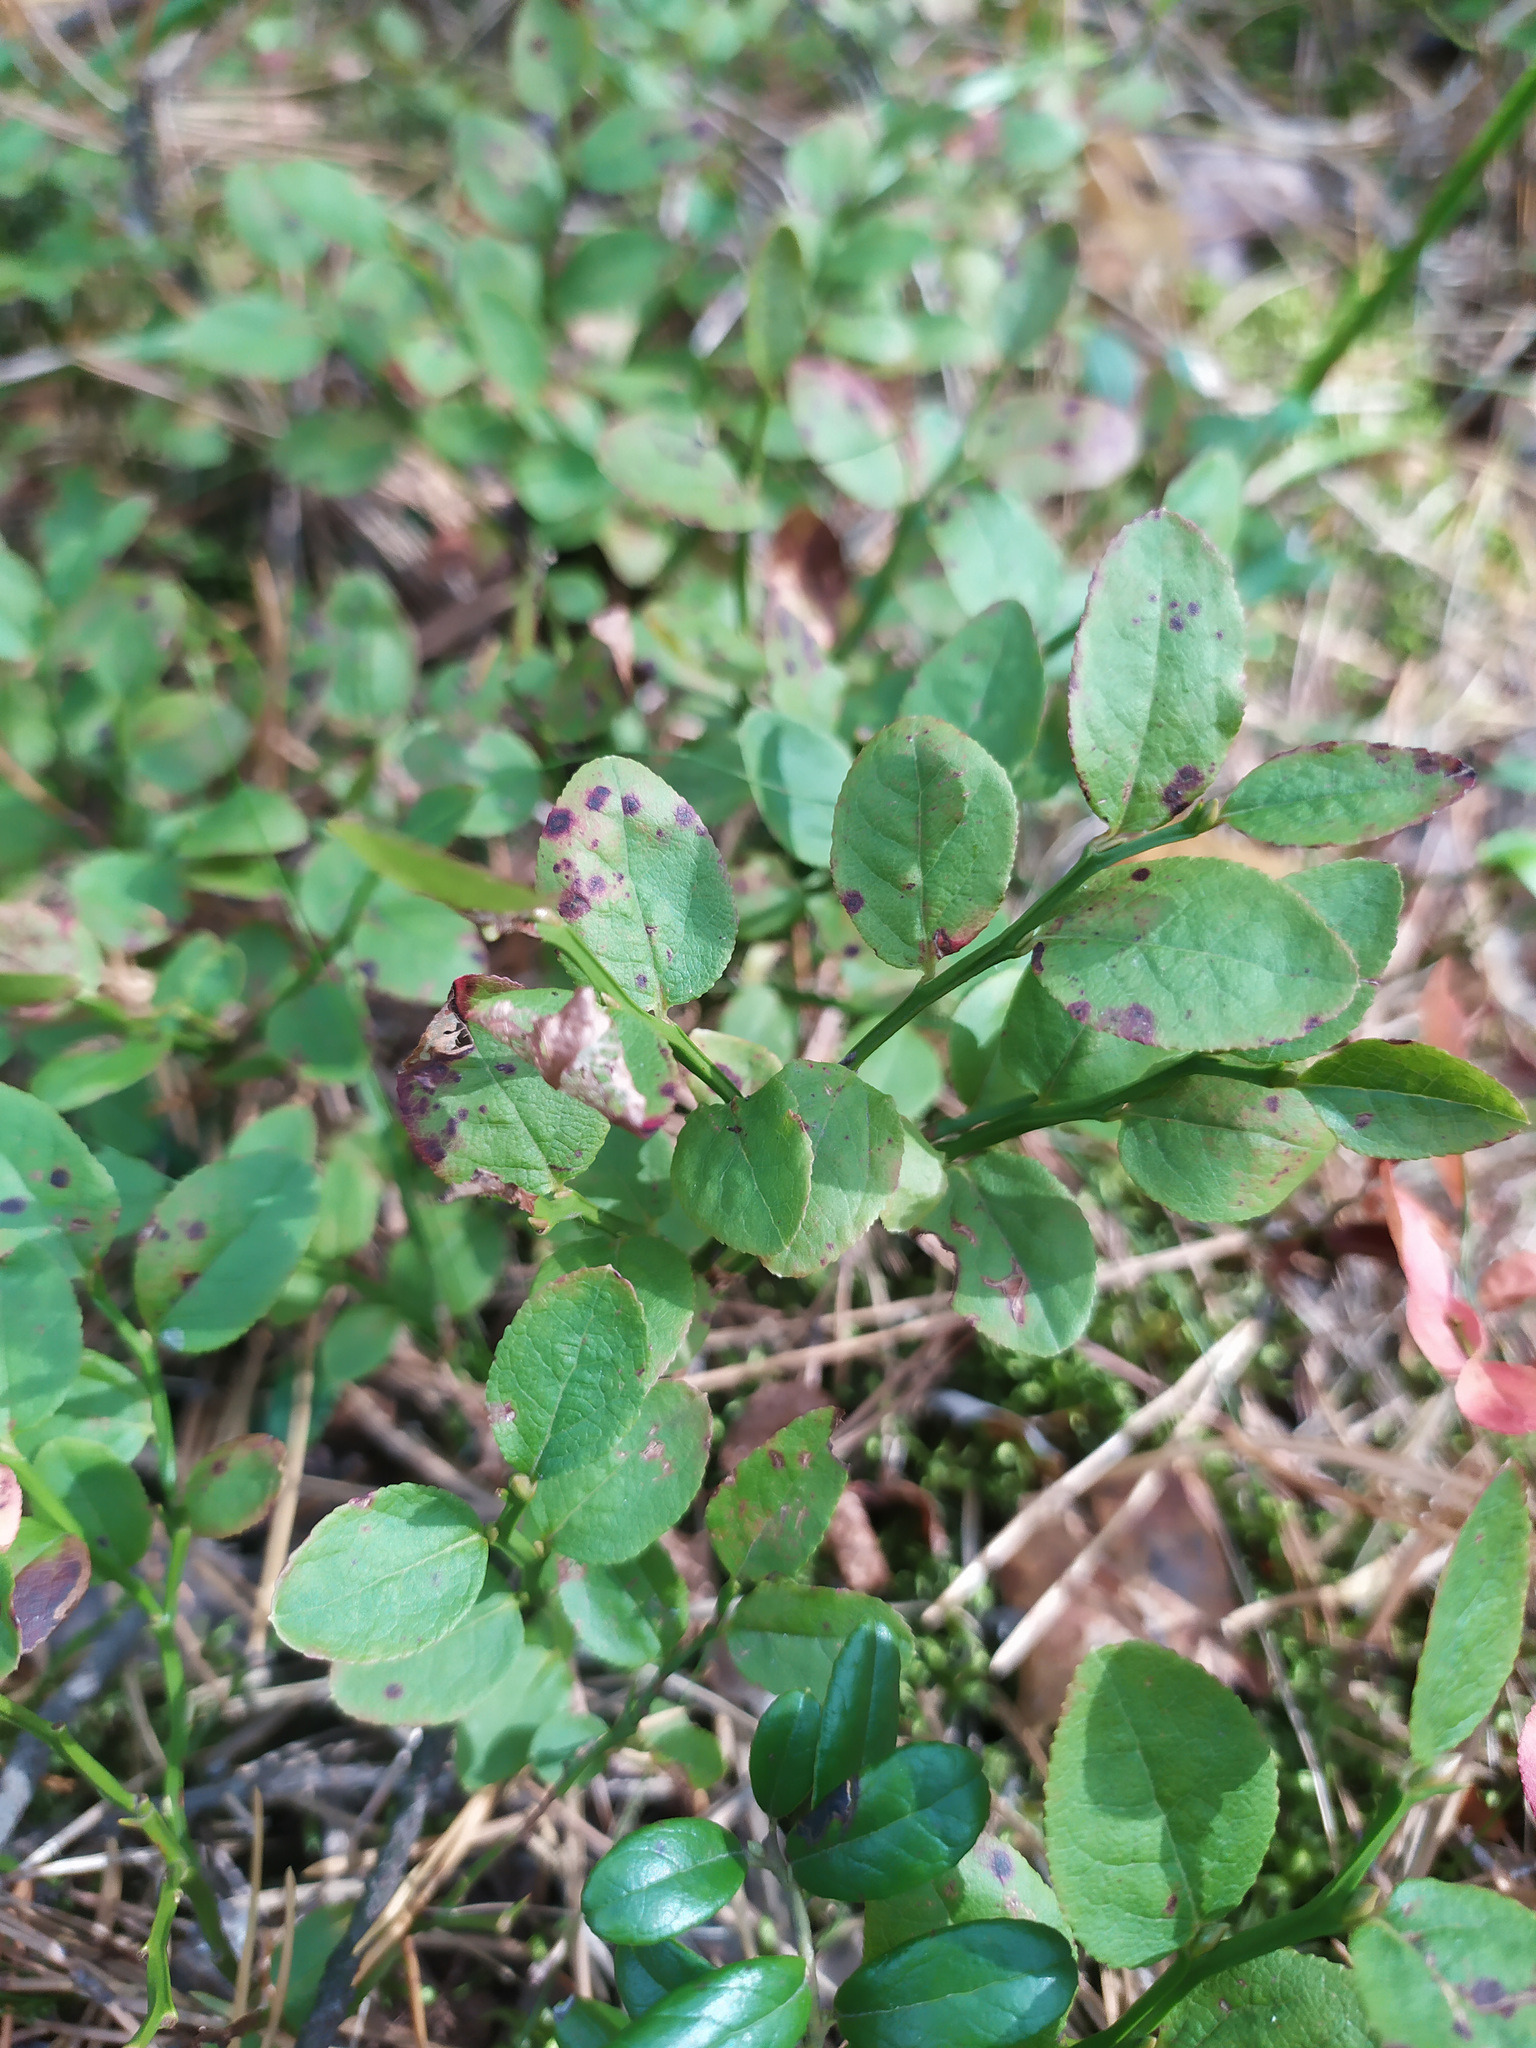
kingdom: Plantae
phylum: Tracheophyta
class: Magnoliopsida
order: Ericales
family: Ericaceae
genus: Vaccinium
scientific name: Vaccinium myrtillus
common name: Bilberry
